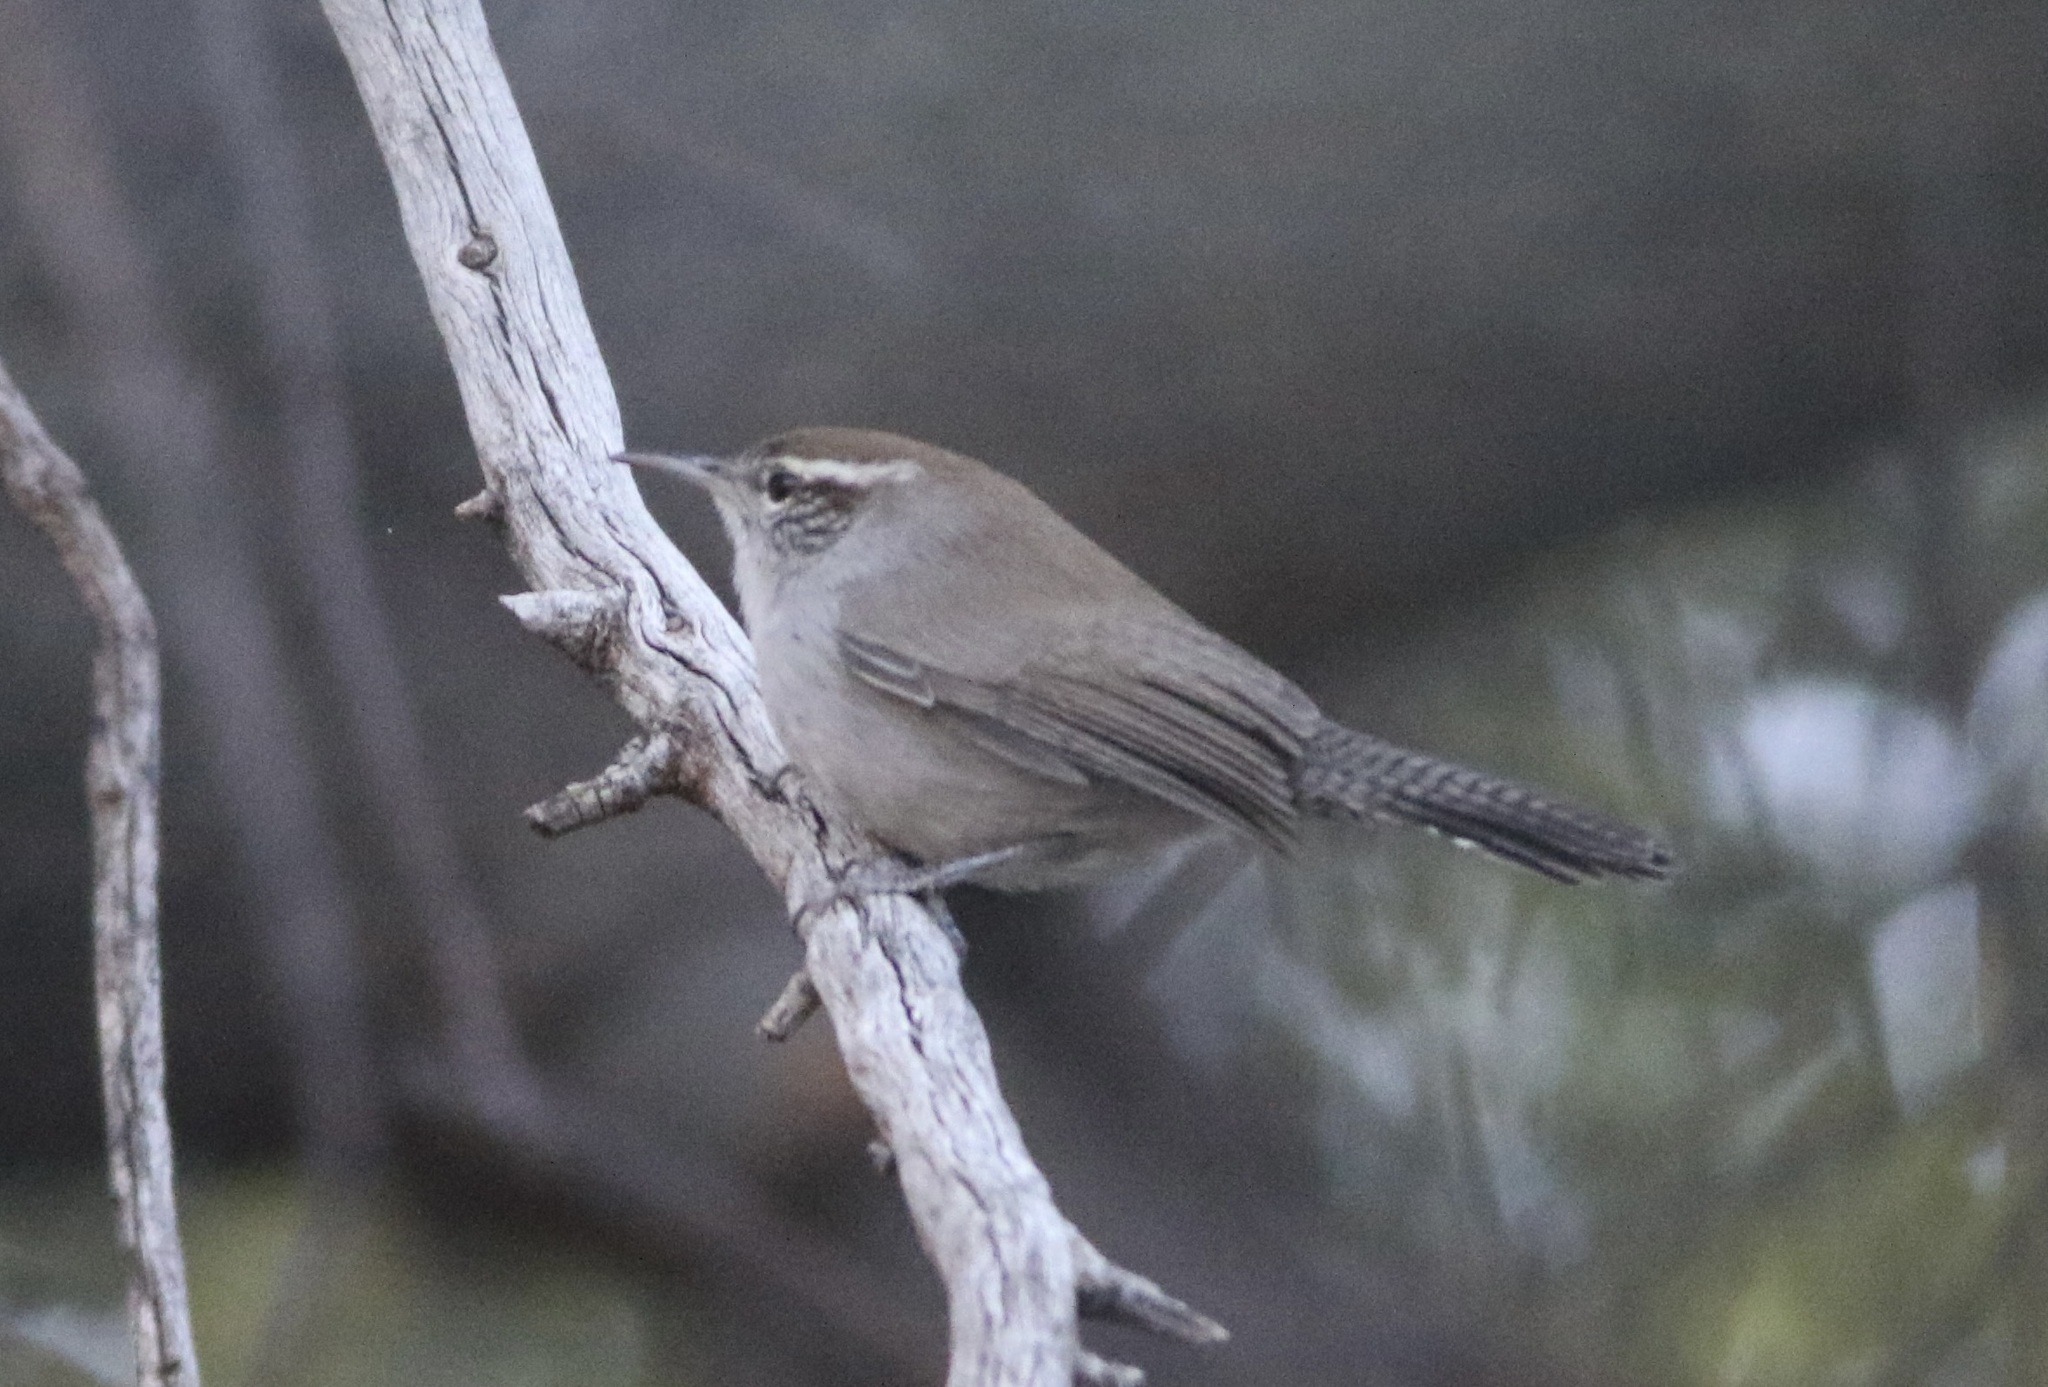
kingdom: Animalia
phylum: Chordata
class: Aves
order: Passeriformes
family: Troglodytidae
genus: Thryomanes
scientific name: Thryomanes bewickii
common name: Bewick's wren
